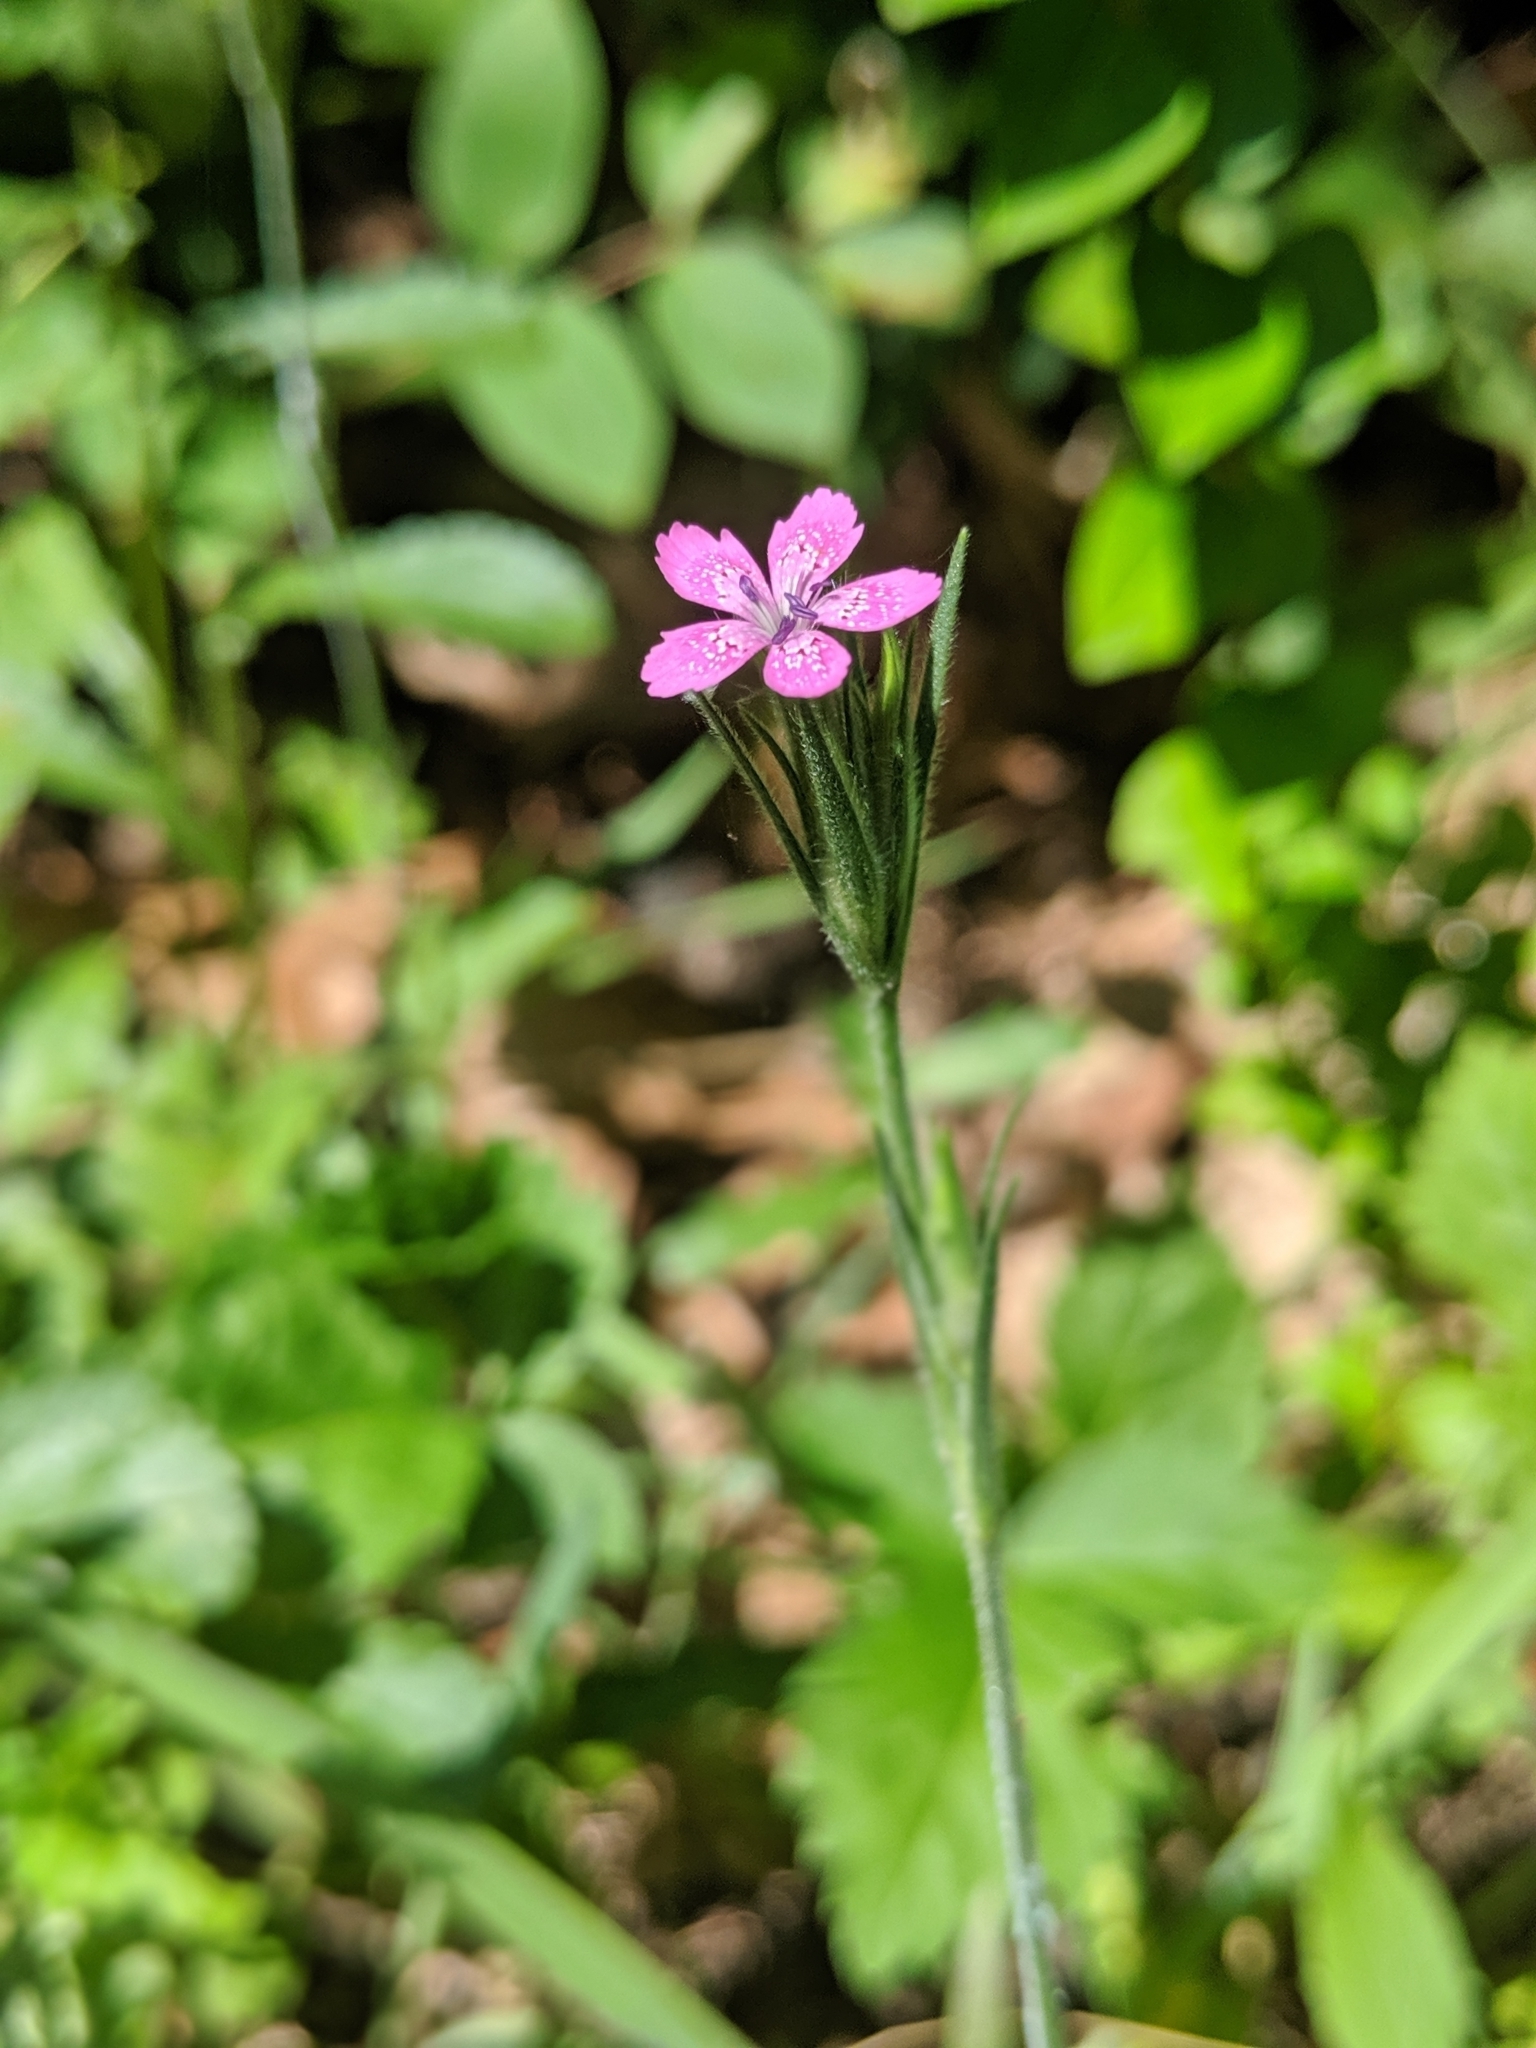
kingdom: Plantae
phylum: Tracheophyta
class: Magnoliopsida
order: Caryophyllales
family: Caryophyllaceae
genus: Dianthus
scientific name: Dianthus armeria
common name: Deptford pink
